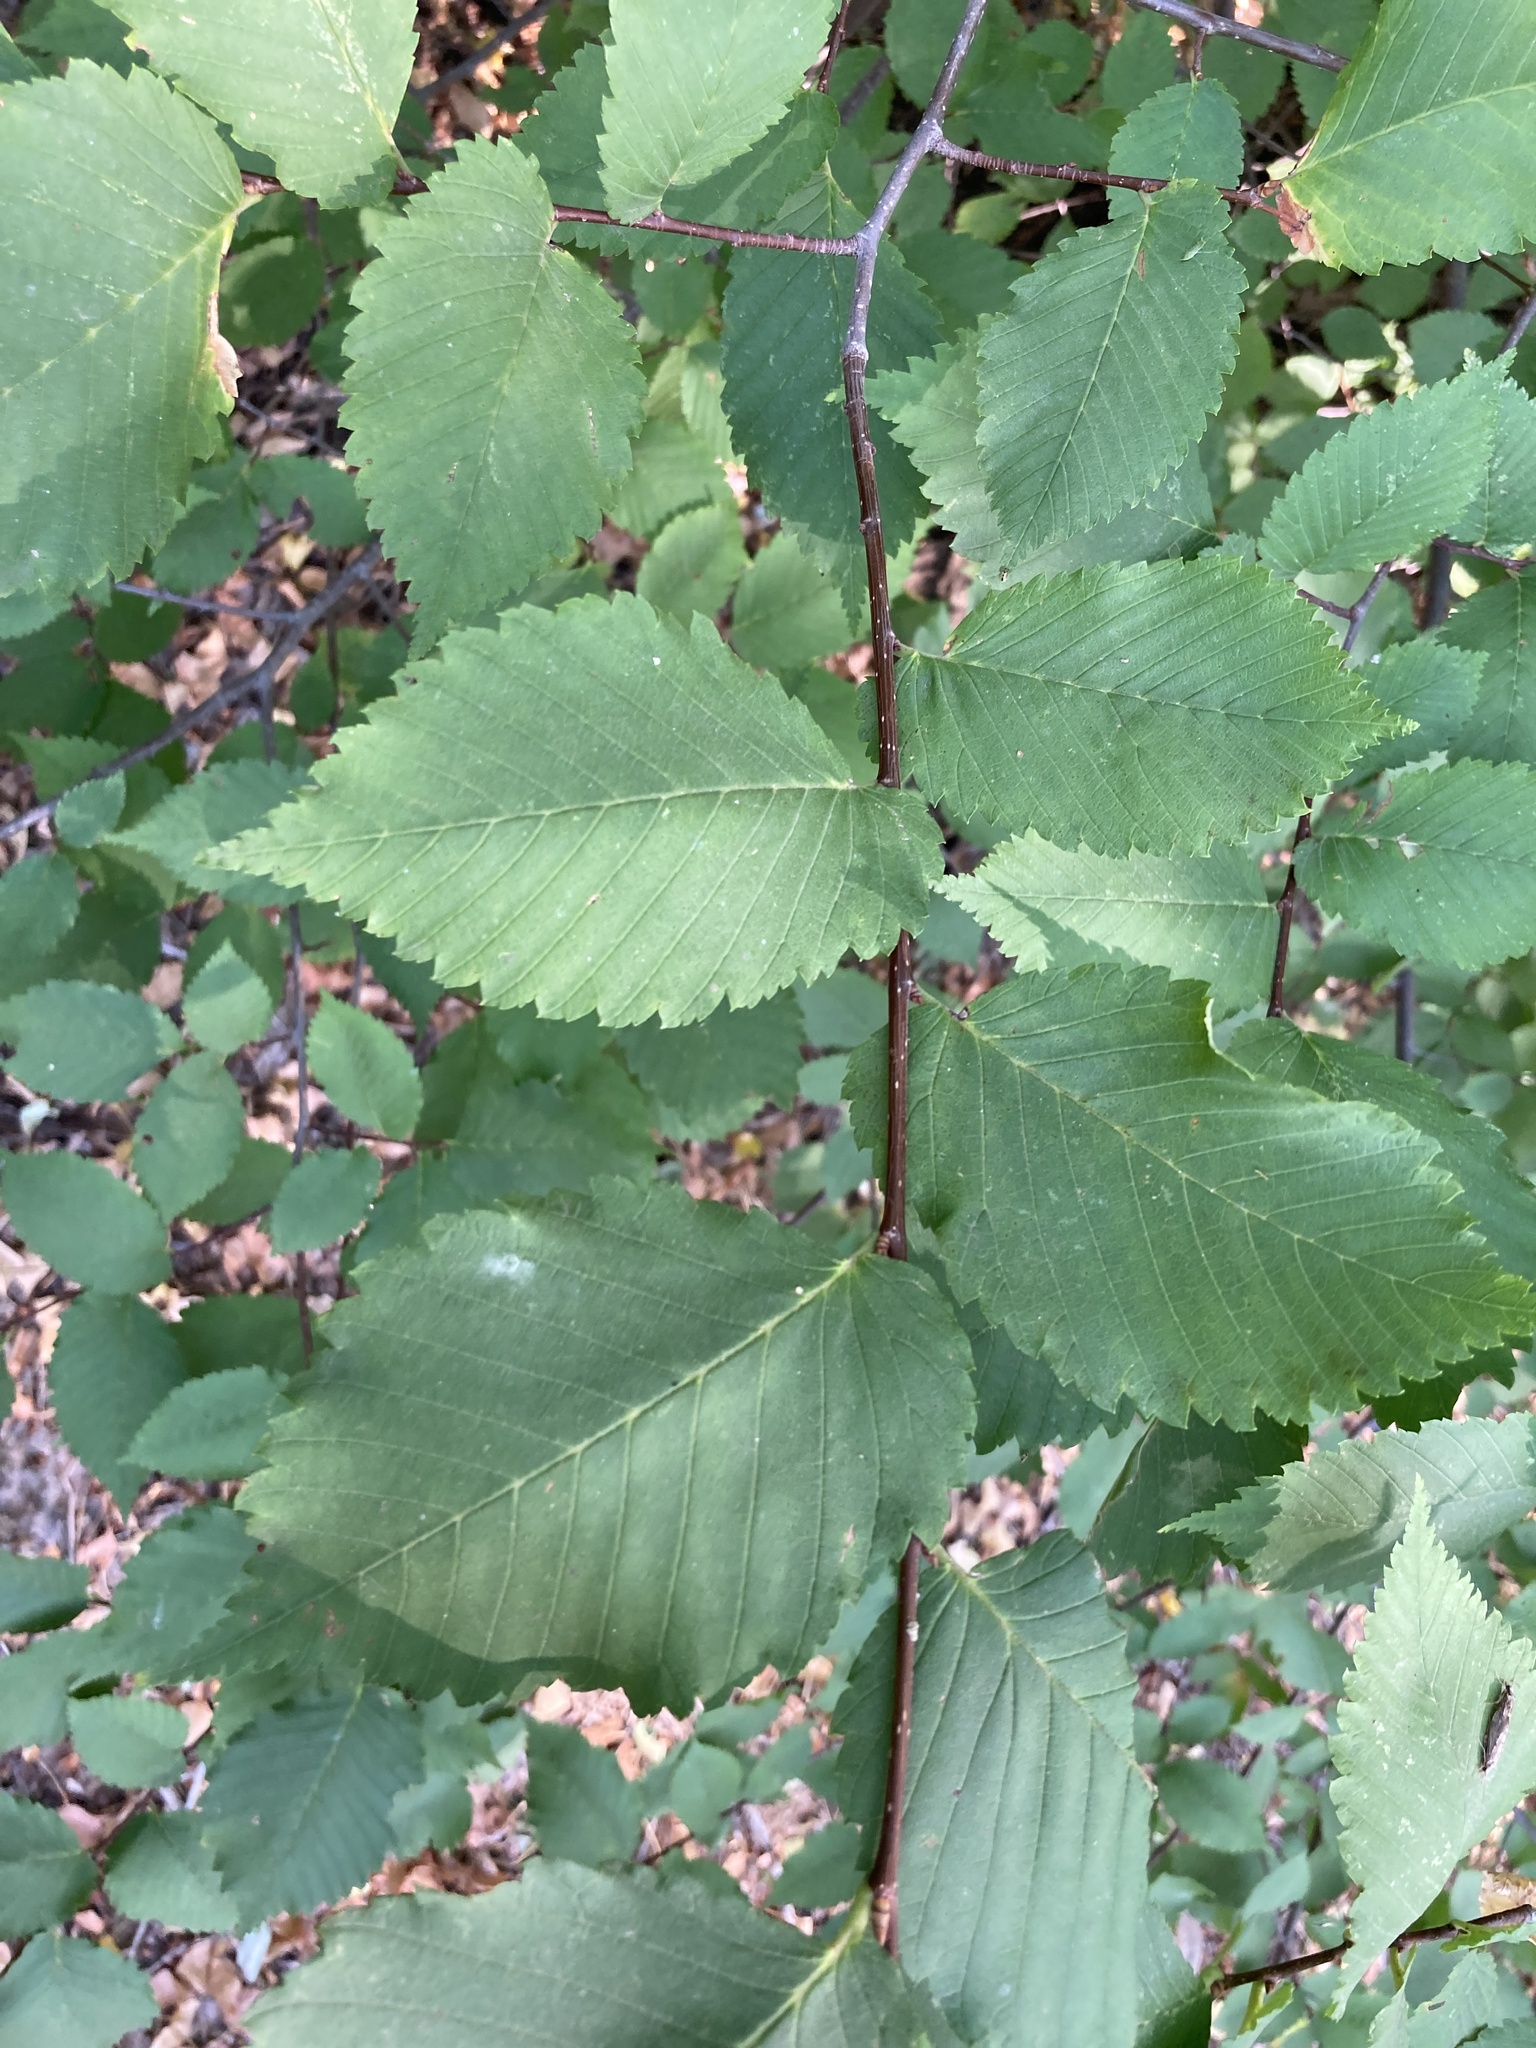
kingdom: Plantae
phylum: Tracheophyta
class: Magnoliopsida
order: Rosales
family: Ulmaceae
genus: Ulmus
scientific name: Ulmus laevis
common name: European white-elm
